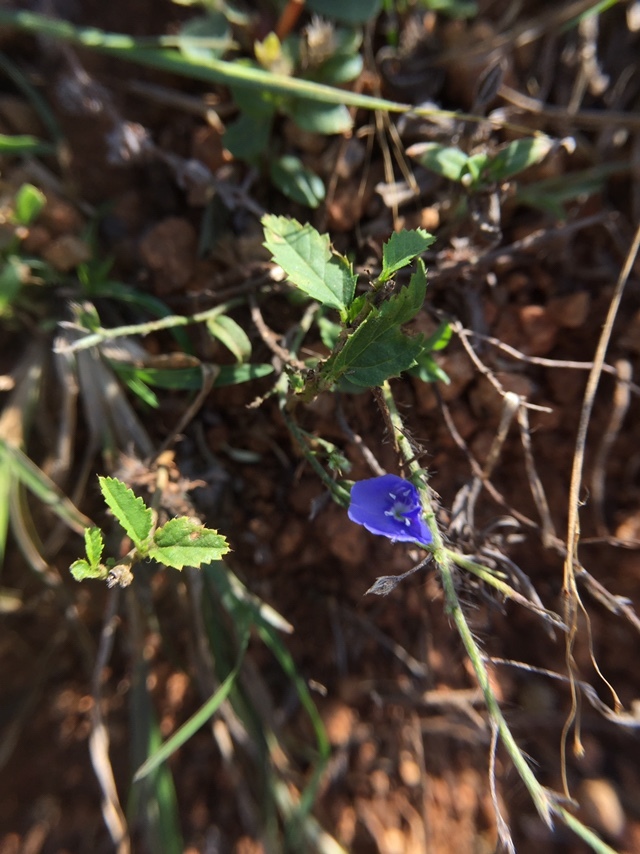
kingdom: Plantae
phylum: Tracheophyta
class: Magnoliopsida
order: Solanales
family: Convolvulaceae
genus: Evolvulus
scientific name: Evolvulus alsinoides
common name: Slender dwarf morning-glory
